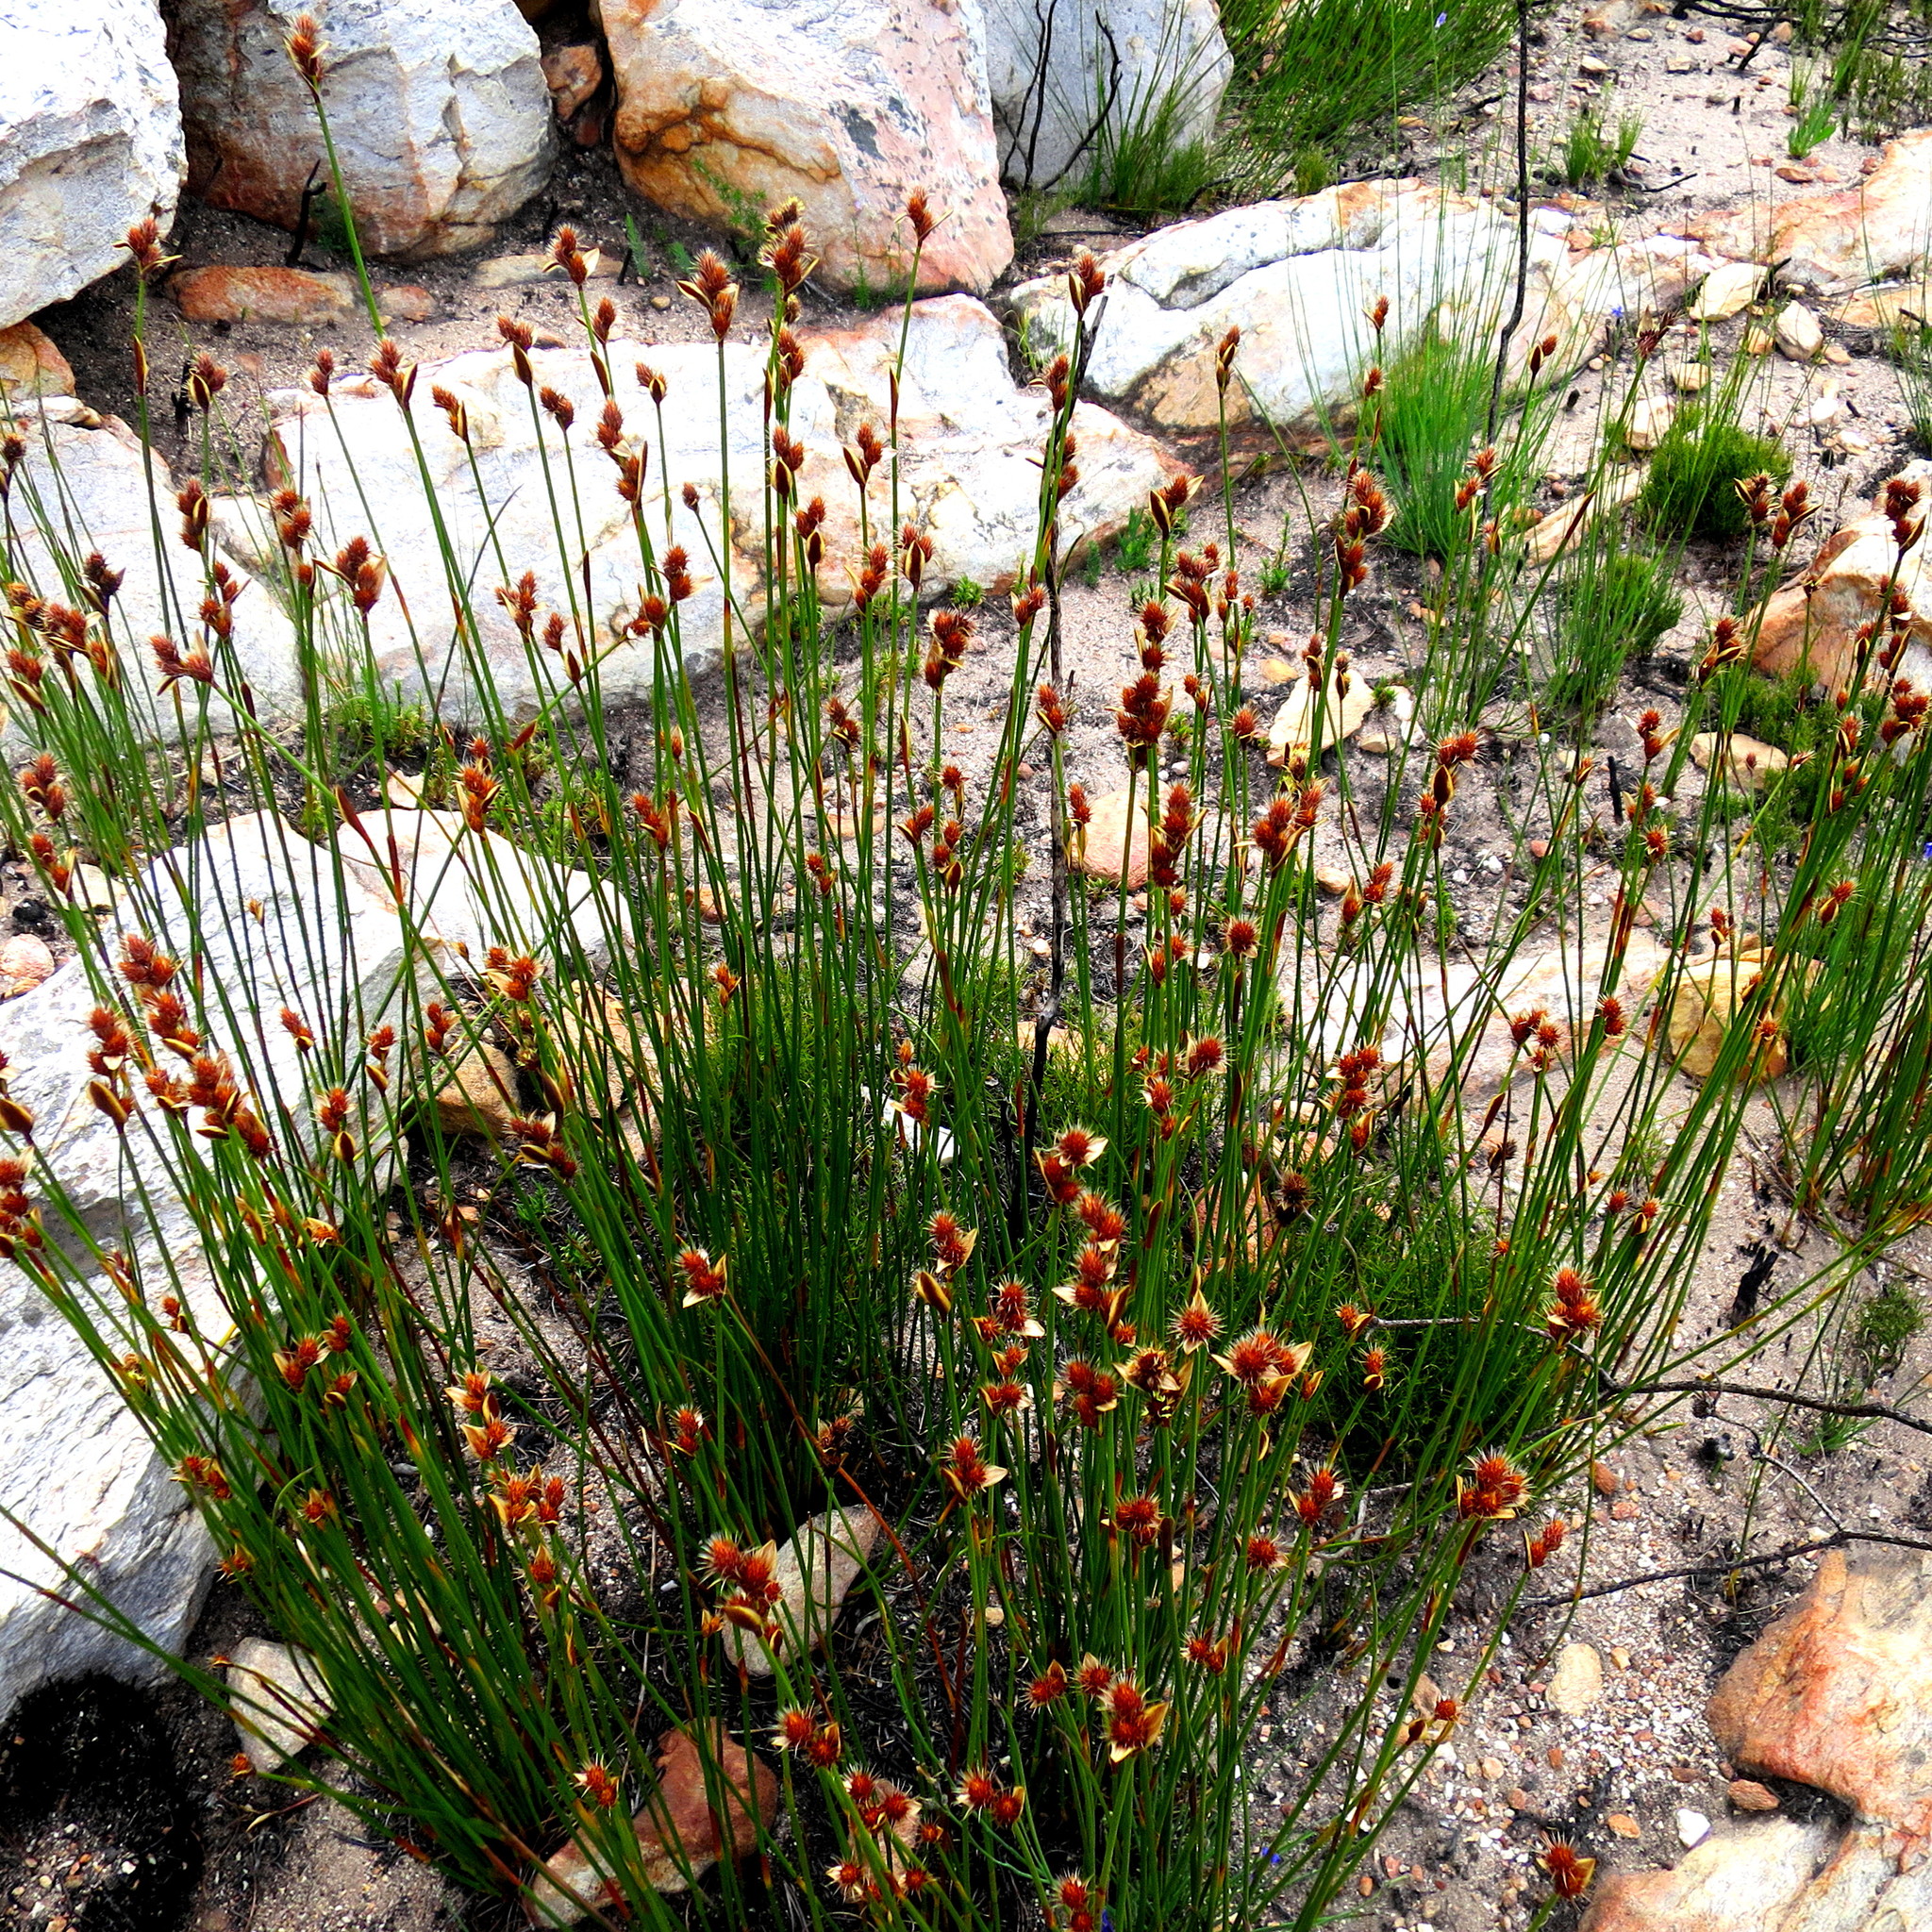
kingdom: Plantae
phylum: Tracheophyta
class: Liliopsida
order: Poales
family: Restionaceae
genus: Hypodiscus
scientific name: Hypodiscus aristatus
